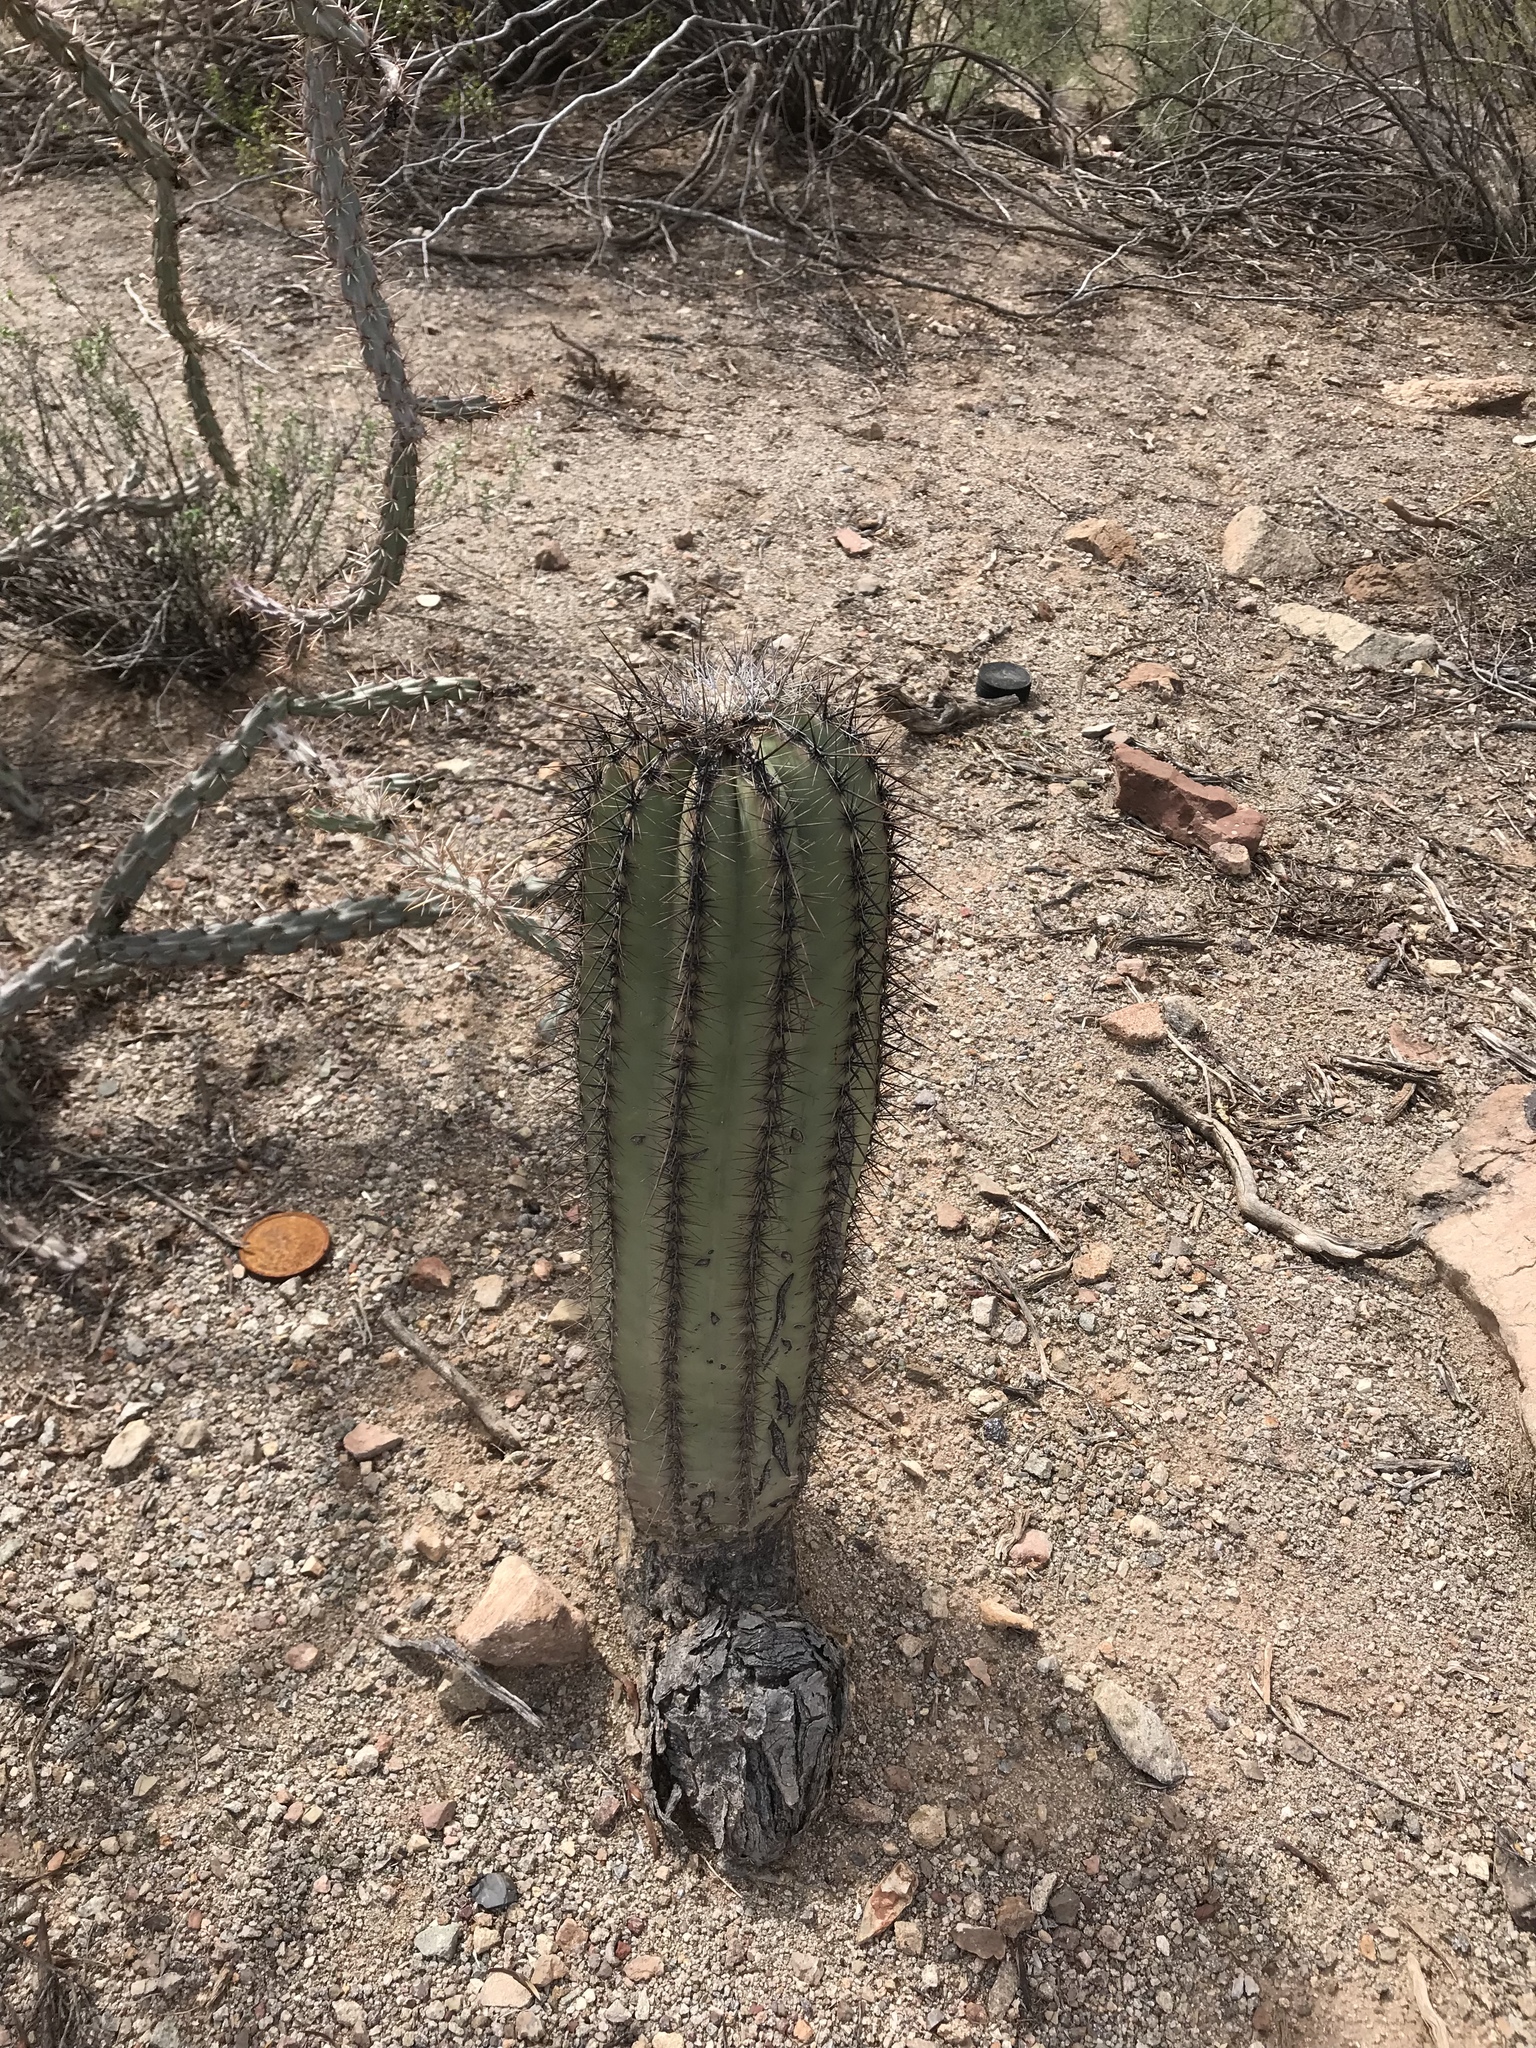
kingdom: Plantae
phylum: Tracheophyta
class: Magnoliopsida
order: Caryophyllales
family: Cactaceae
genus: Carnegiea
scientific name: Carnegiea gigantea
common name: Saguaro
